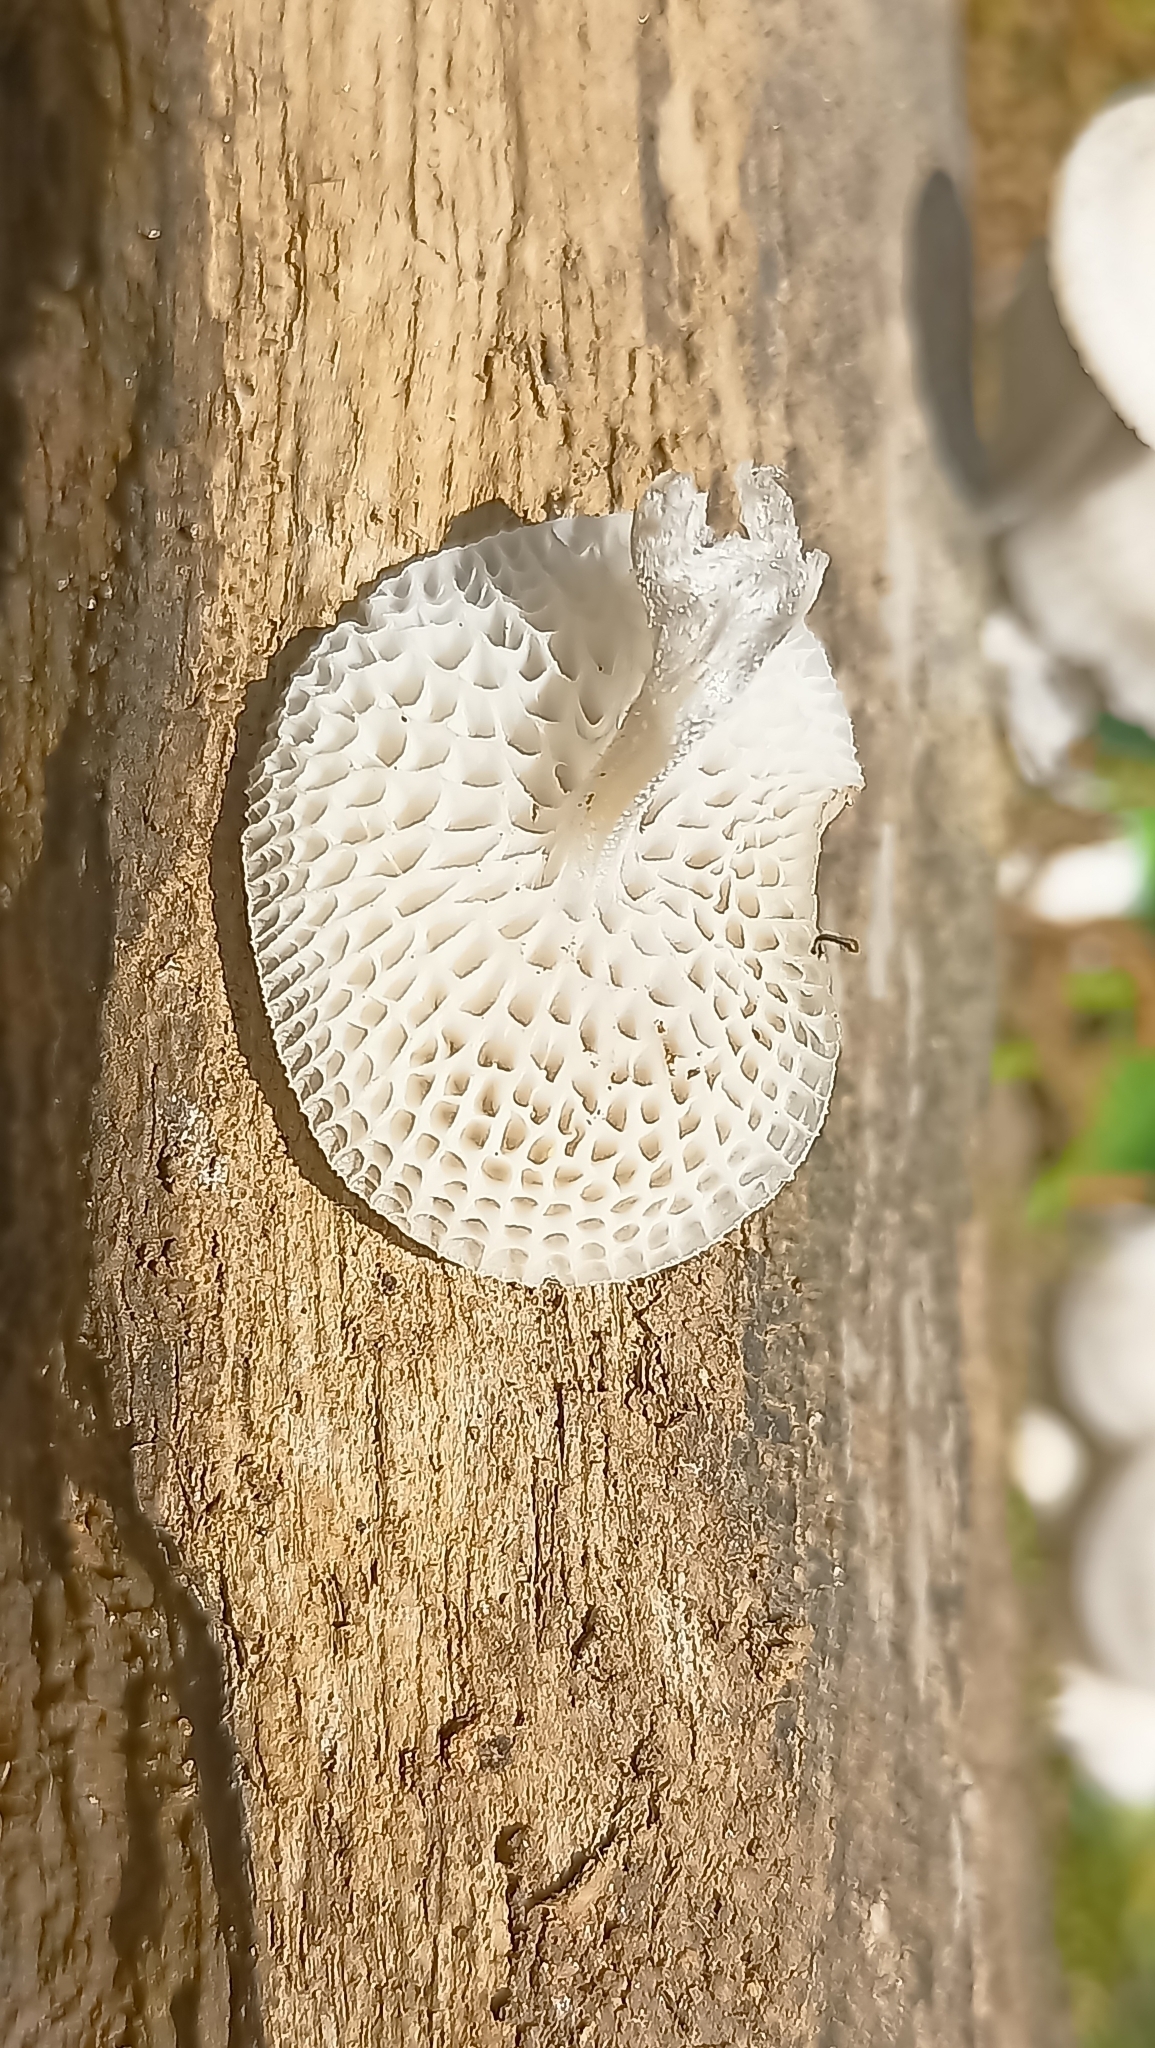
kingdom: Fungi
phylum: Basidiomycota
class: Agaricomycetes
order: Agaricales
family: Mycenaceae
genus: Filoboletus
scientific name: Filoboletus manipularis
